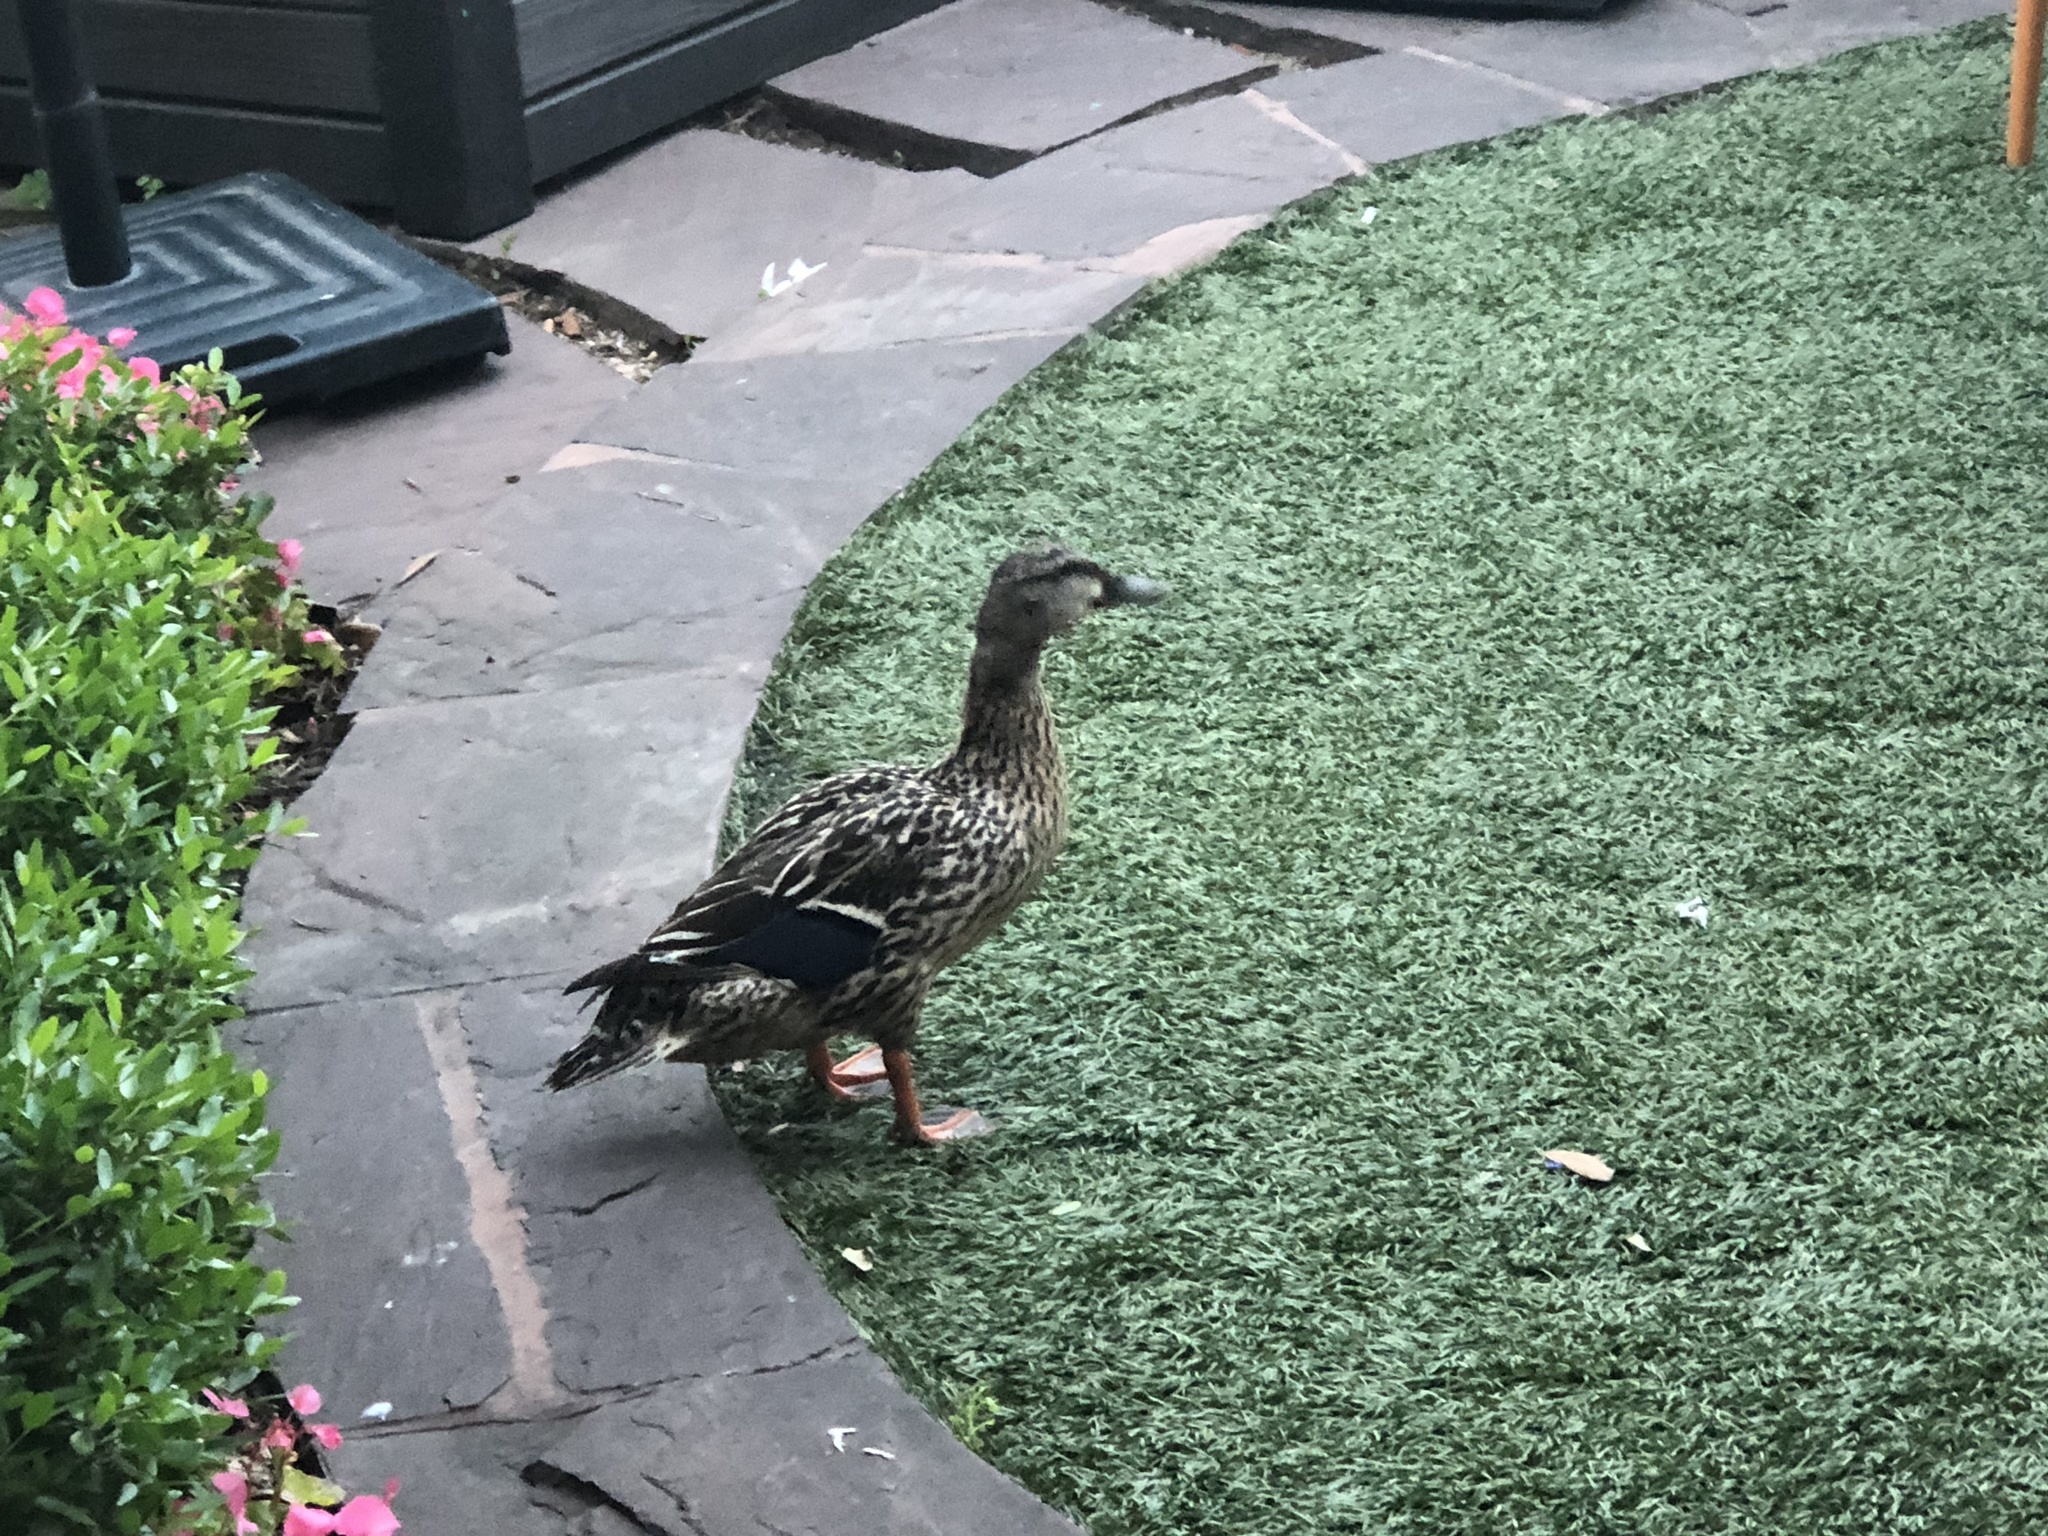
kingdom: Animalia
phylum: Chordata
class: Aves
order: Anseriformes
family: Anatidae
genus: Anas
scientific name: Anas platyrhynchos
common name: Mallard
